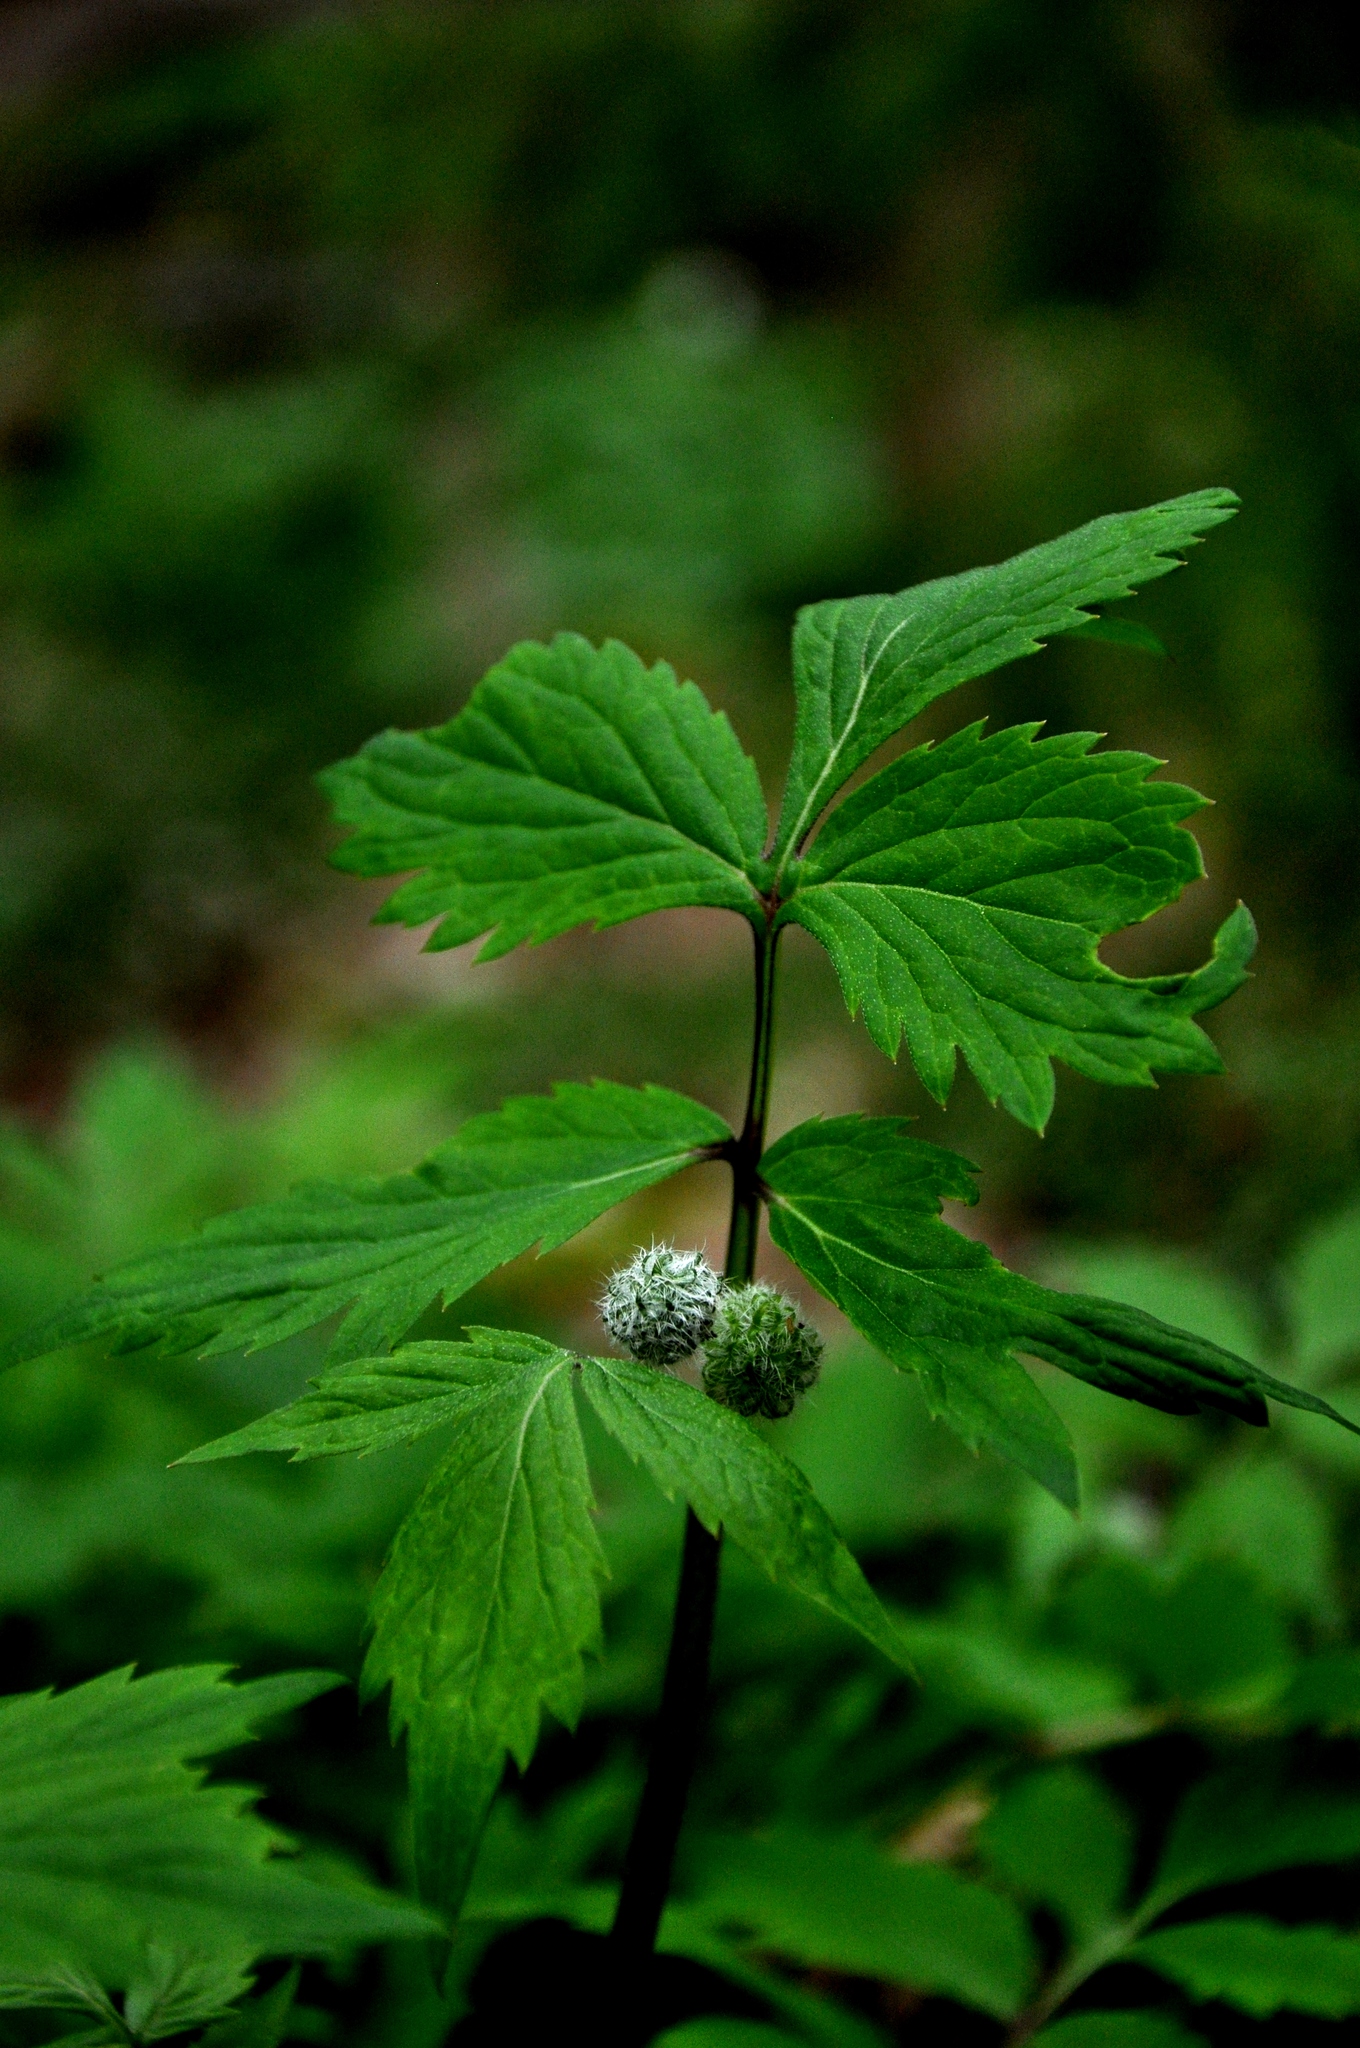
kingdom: Plantae
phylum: Tracheophyta
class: Magnoliopsida
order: Boraginales
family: Hydrophyllaceae
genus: Hydrophyllum
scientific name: Hydrophyllum virginianum
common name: Virginia waterleaf
